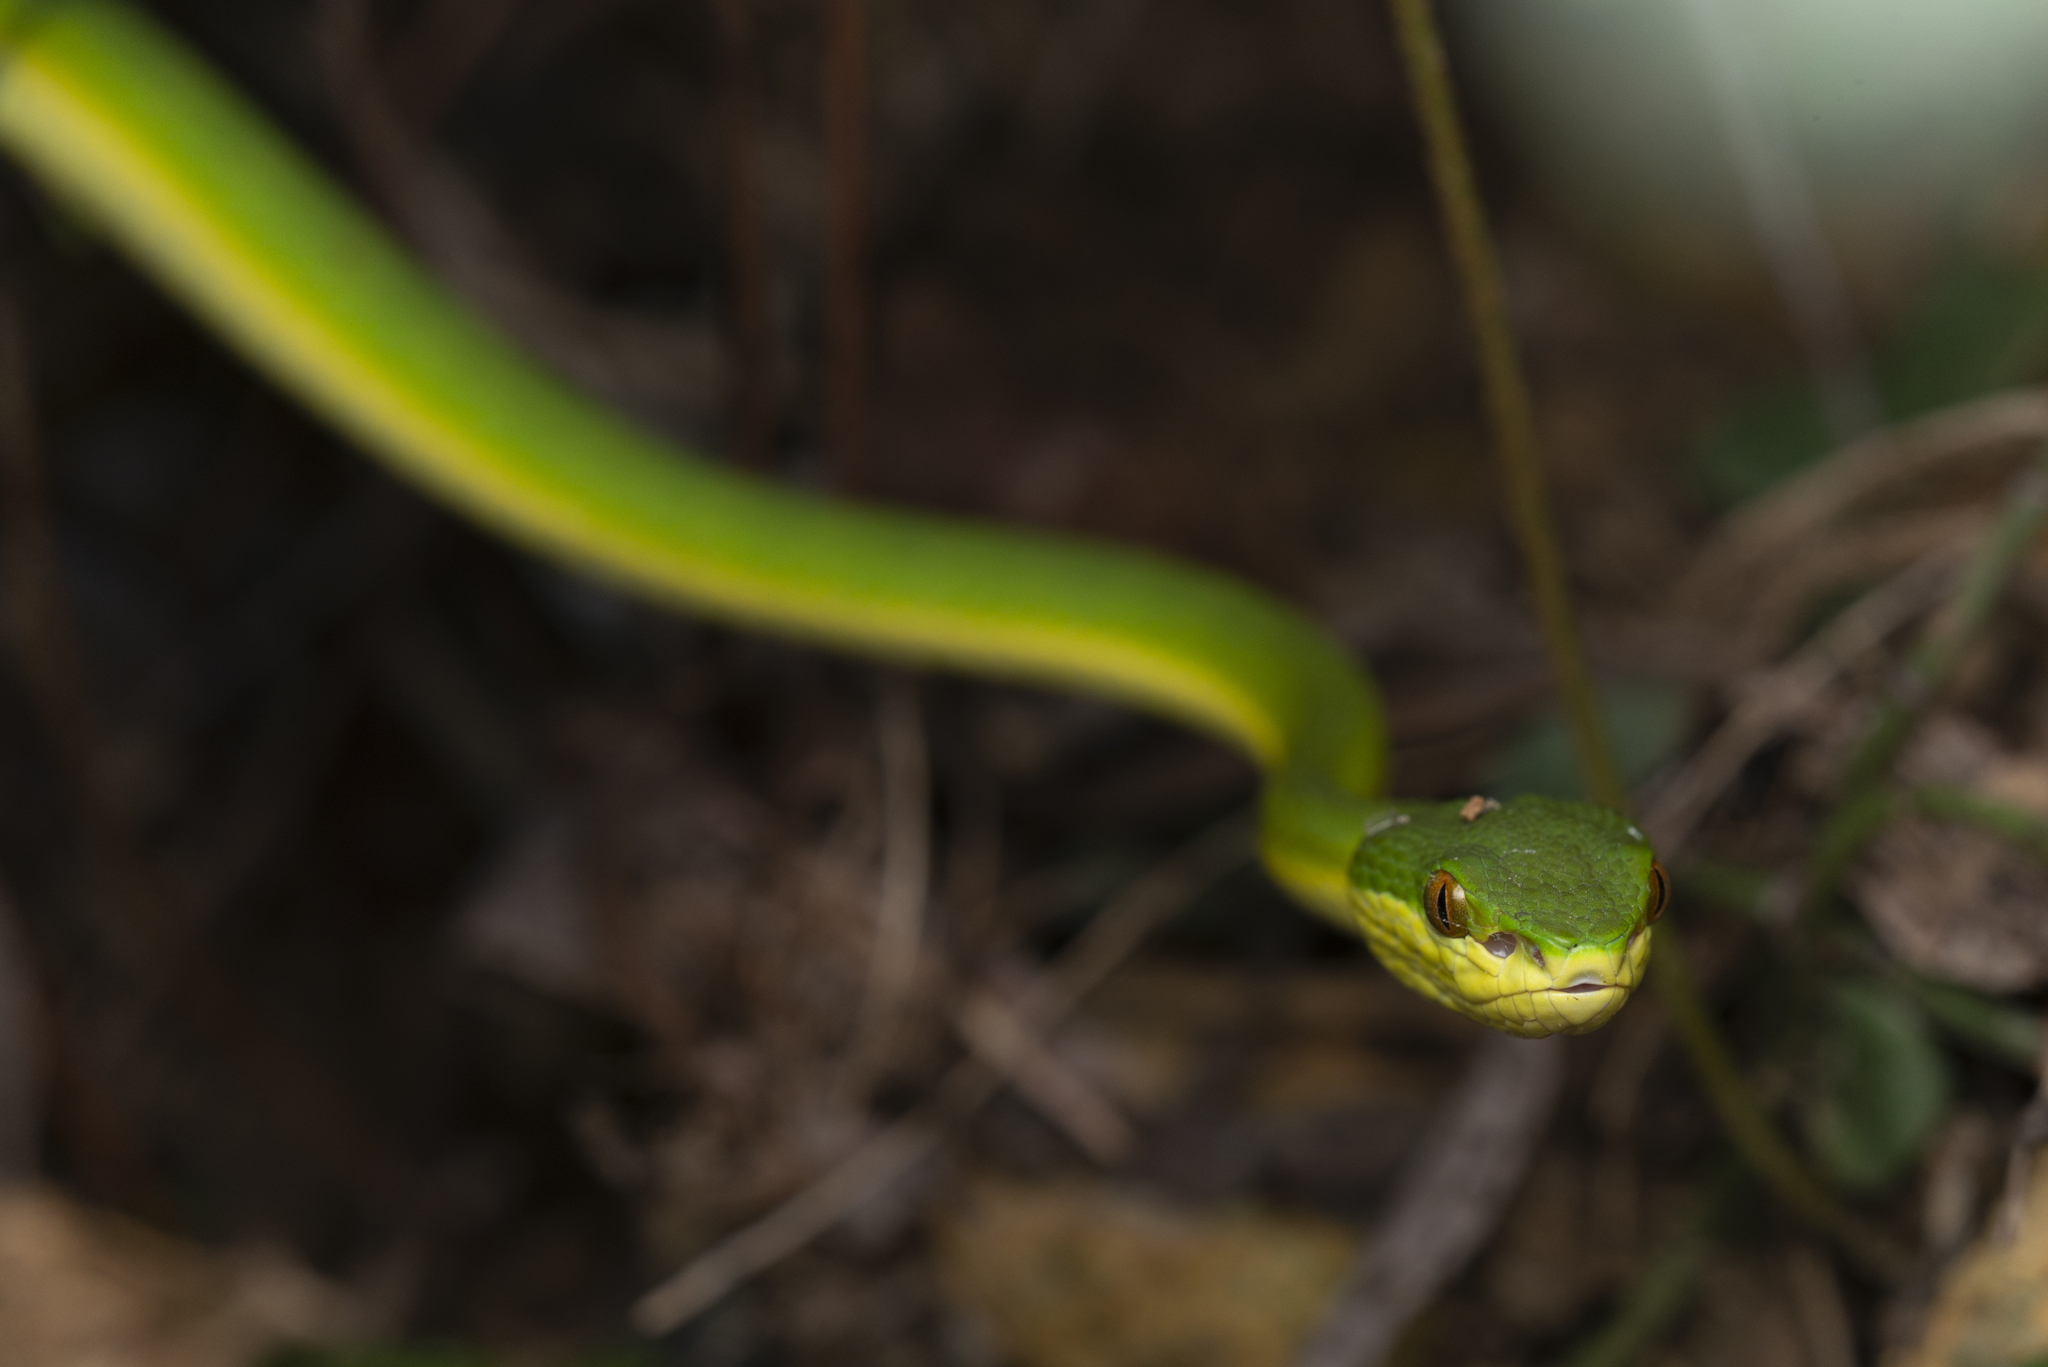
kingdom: Animalia
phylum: Chordata
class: Squamata
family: Viperidae
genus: Trimeresurus
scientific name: Trimeresurus albolabris
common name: White-lipped pitviper
